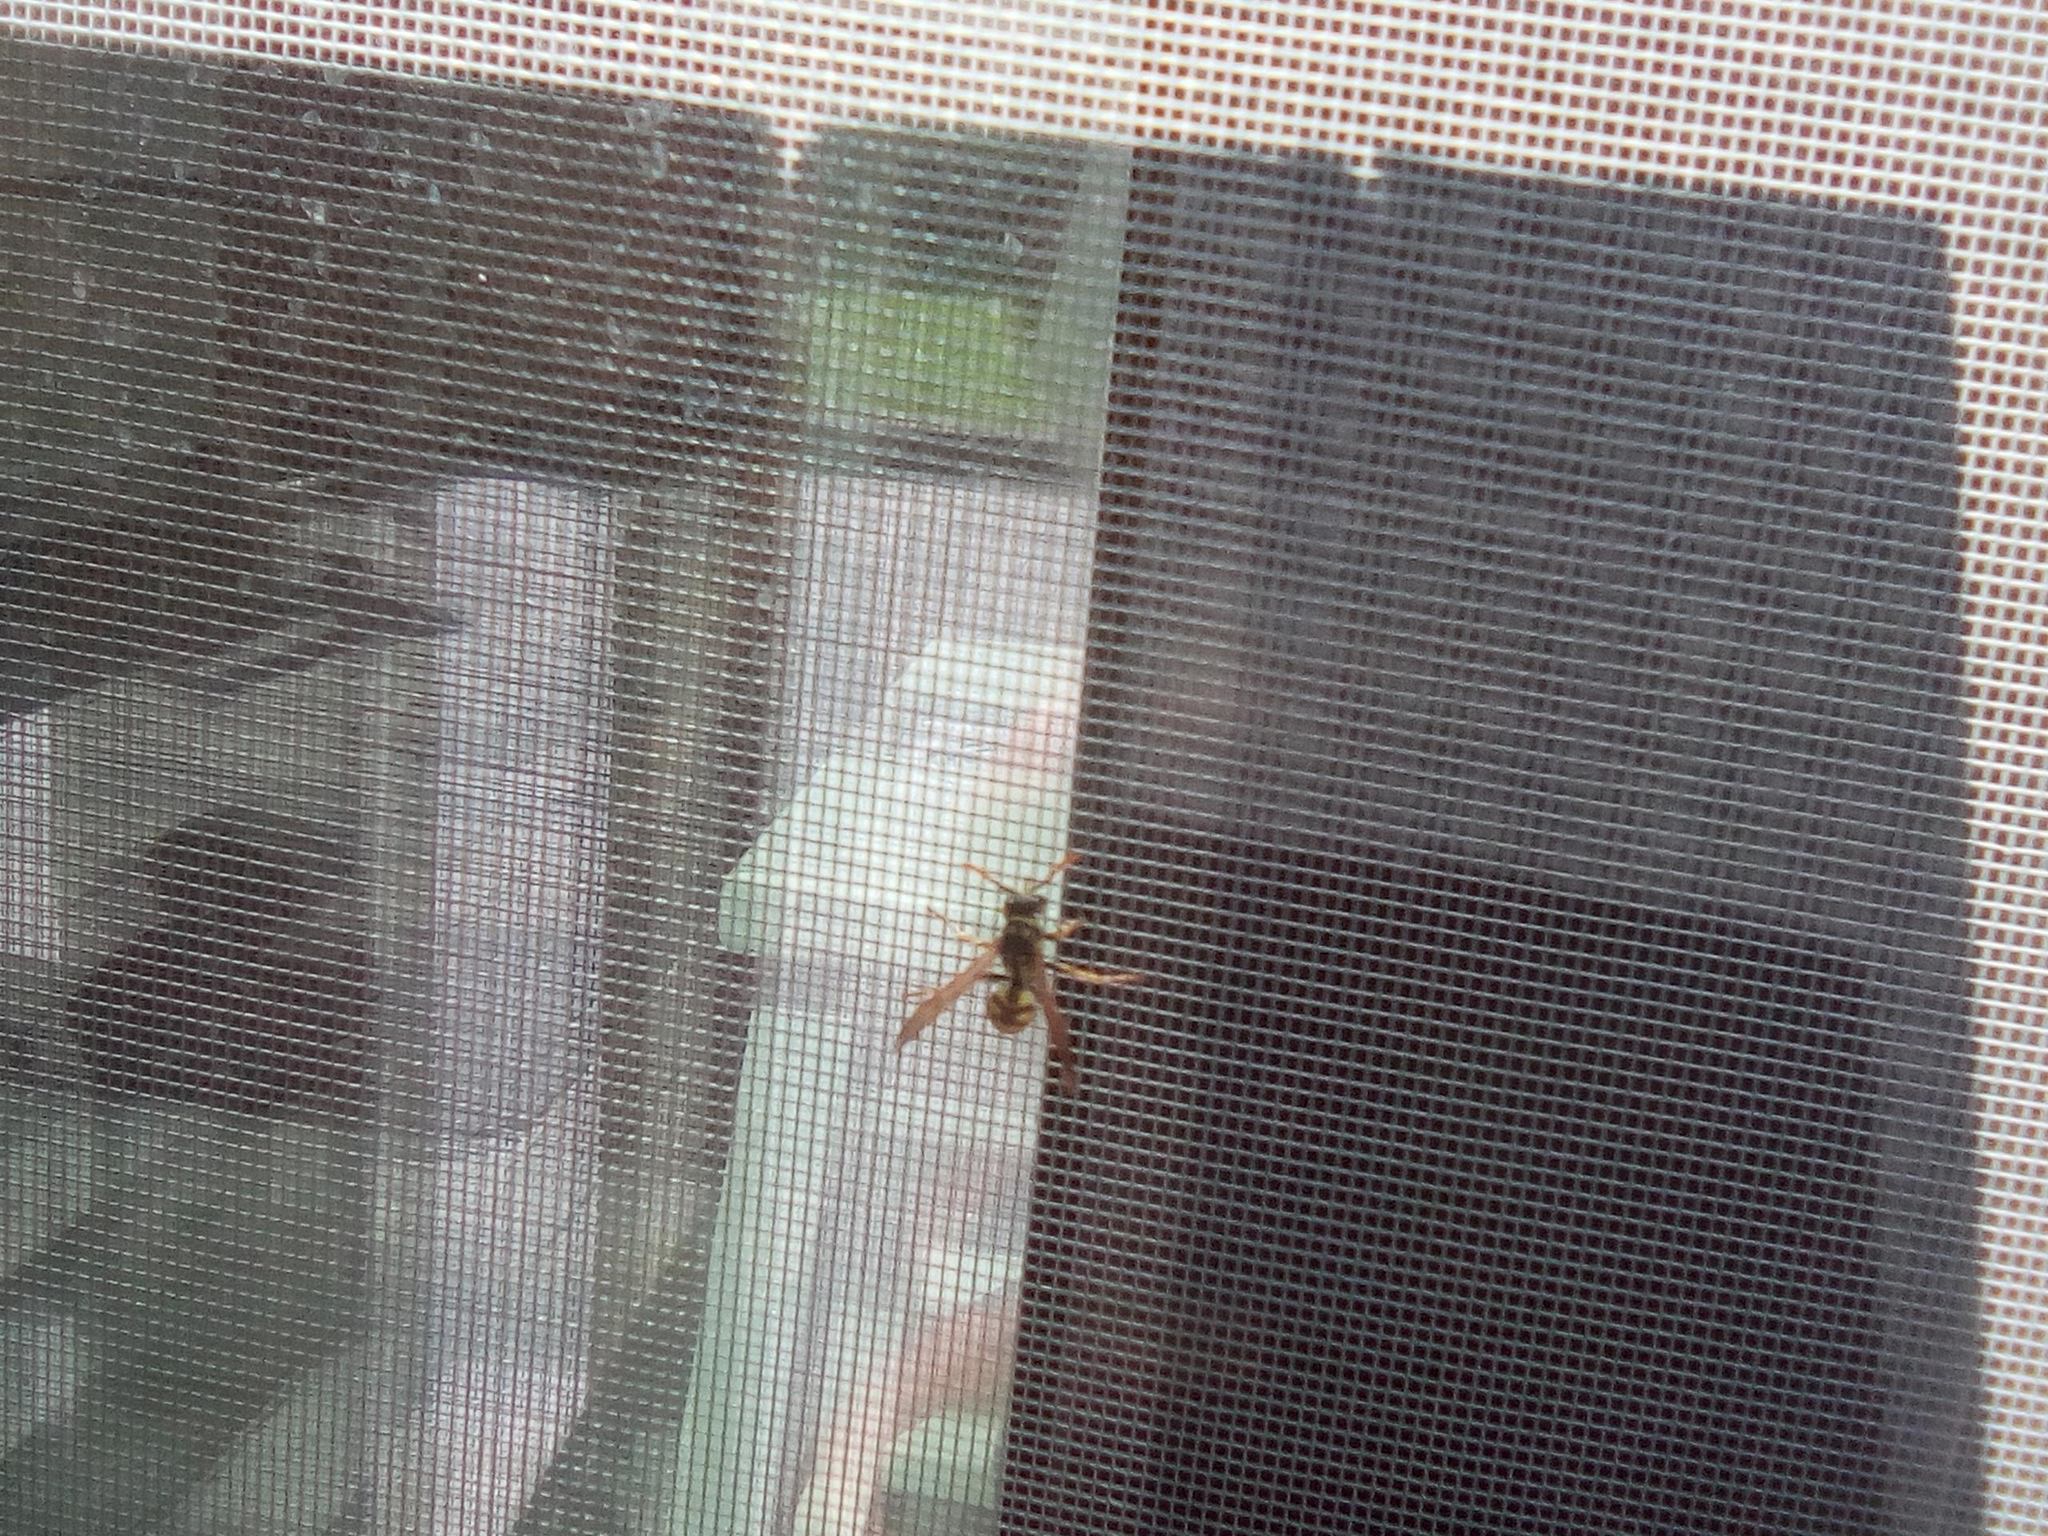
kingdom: Animalia
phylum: Arthropoda
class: Insecta
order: Hymenoptera
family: Eumenidae
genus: Polistes
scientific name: Polistes dominula
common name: Paper wasp
